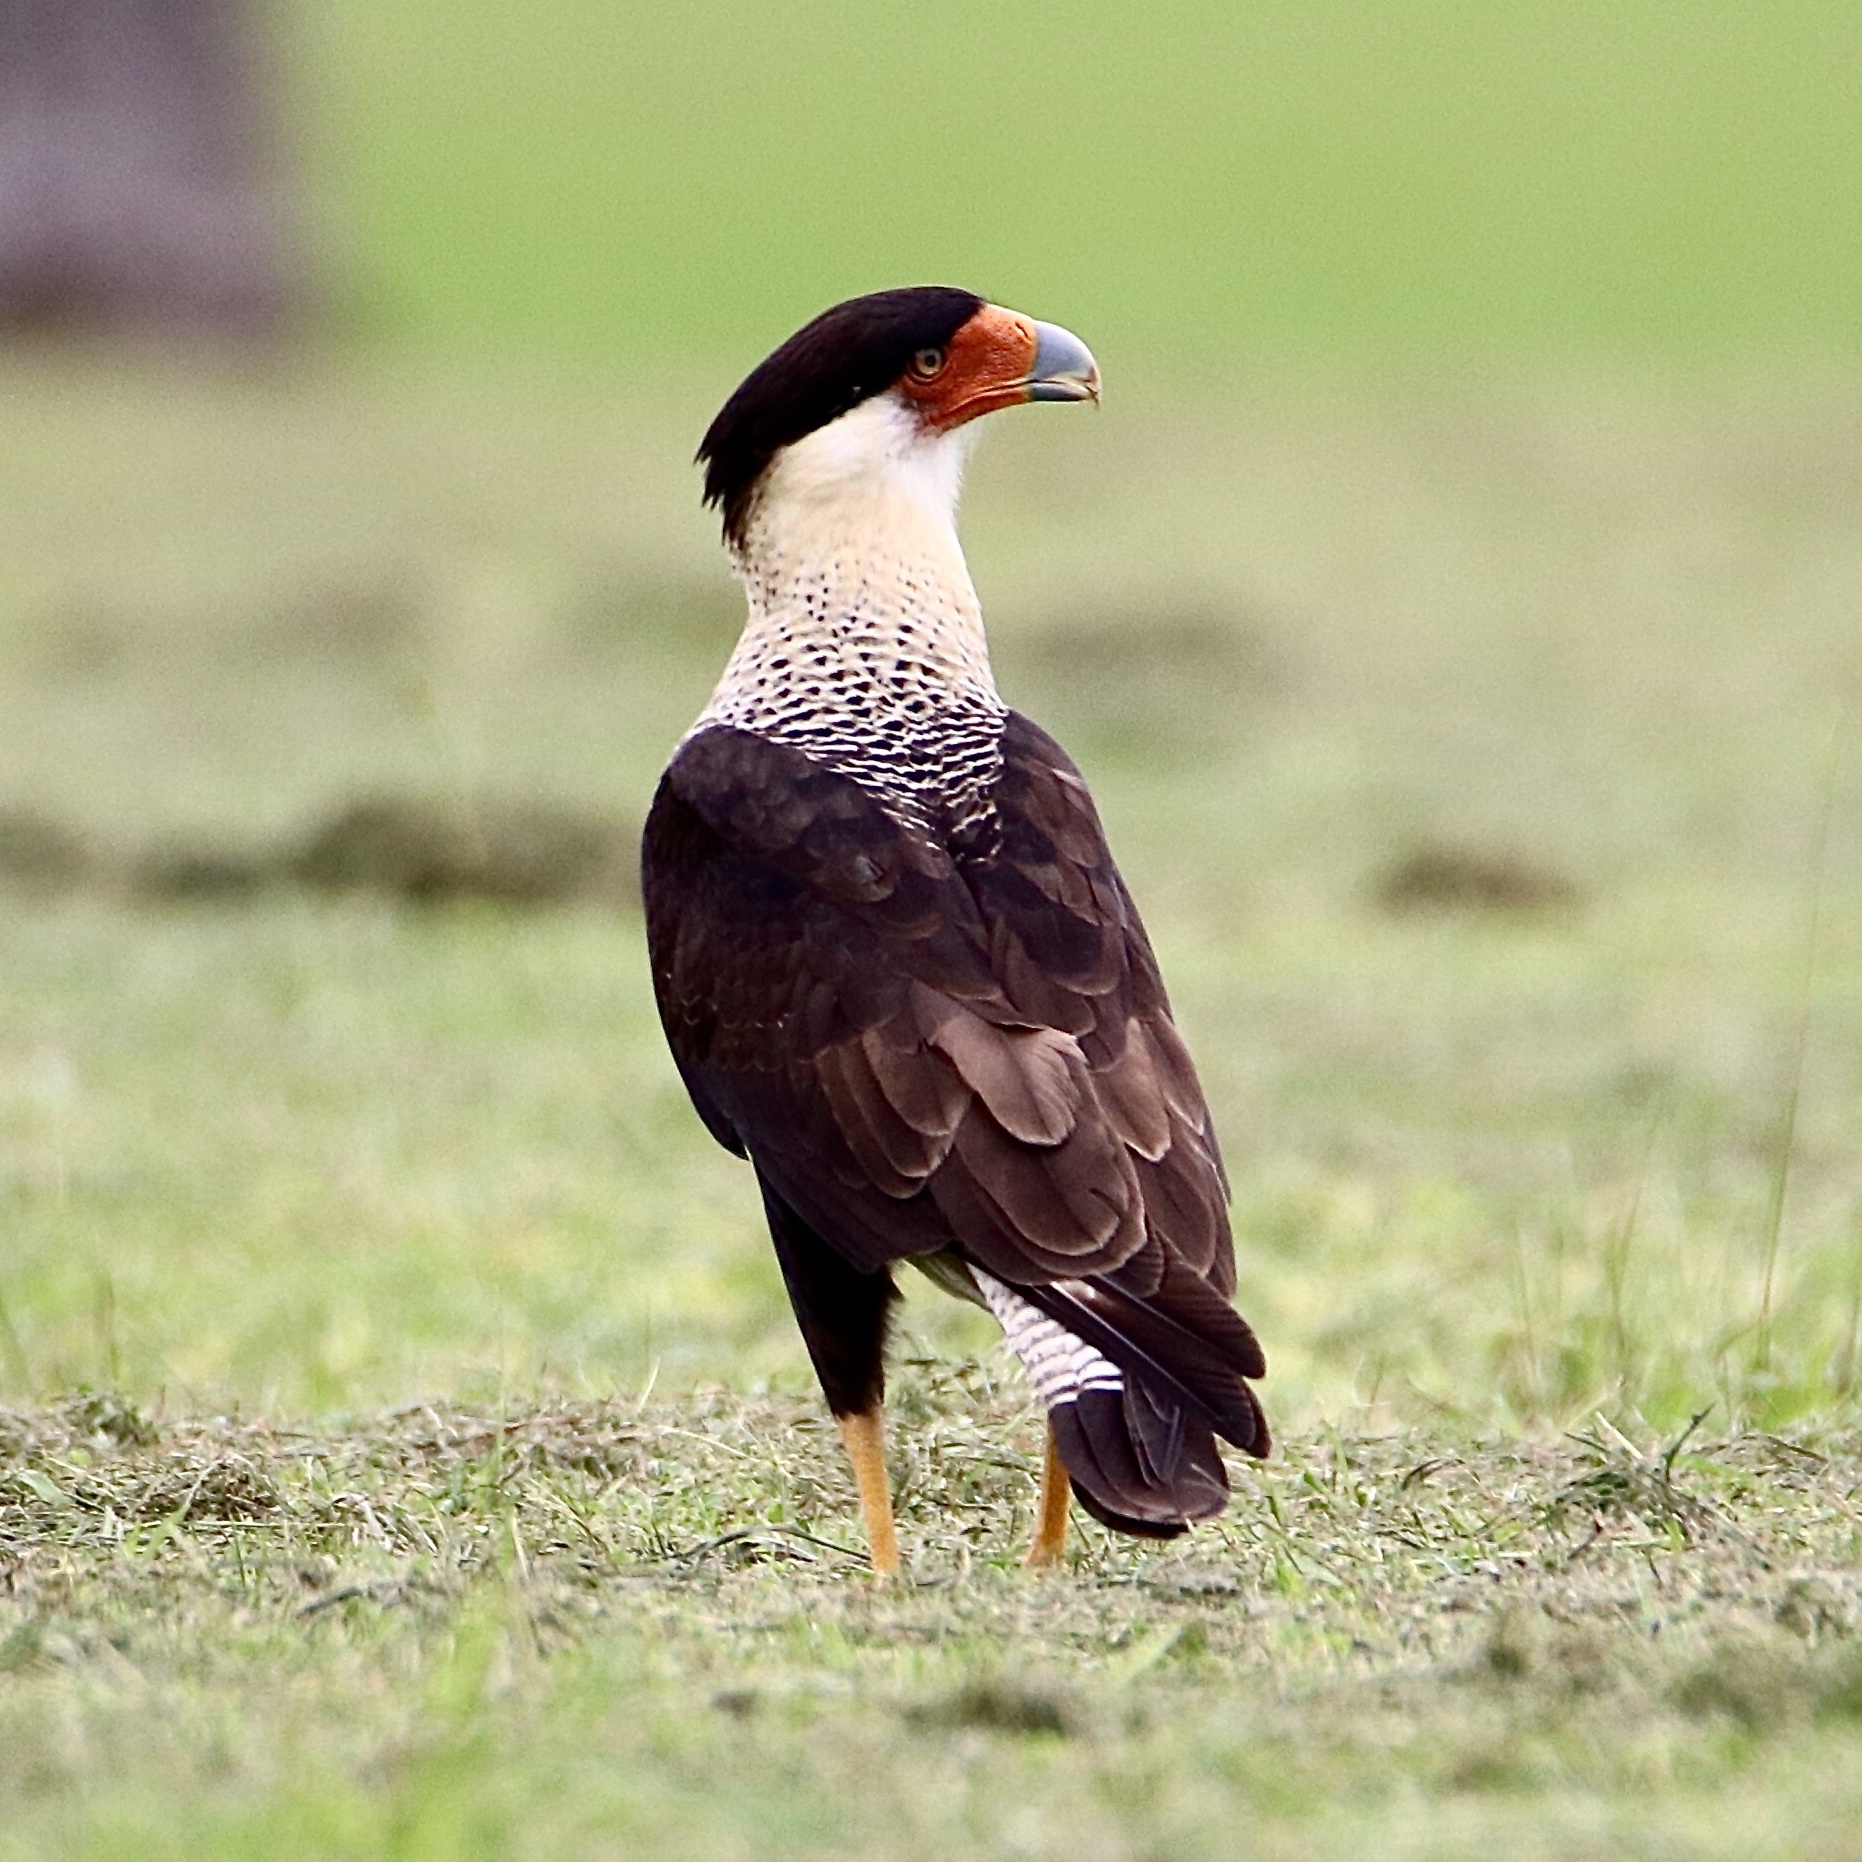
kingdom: Animalia
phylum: Chordata
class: Aves
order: Falconiformes
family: Falconidae
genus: Caracara
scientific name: Caracara plancus
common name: Southern caracara
